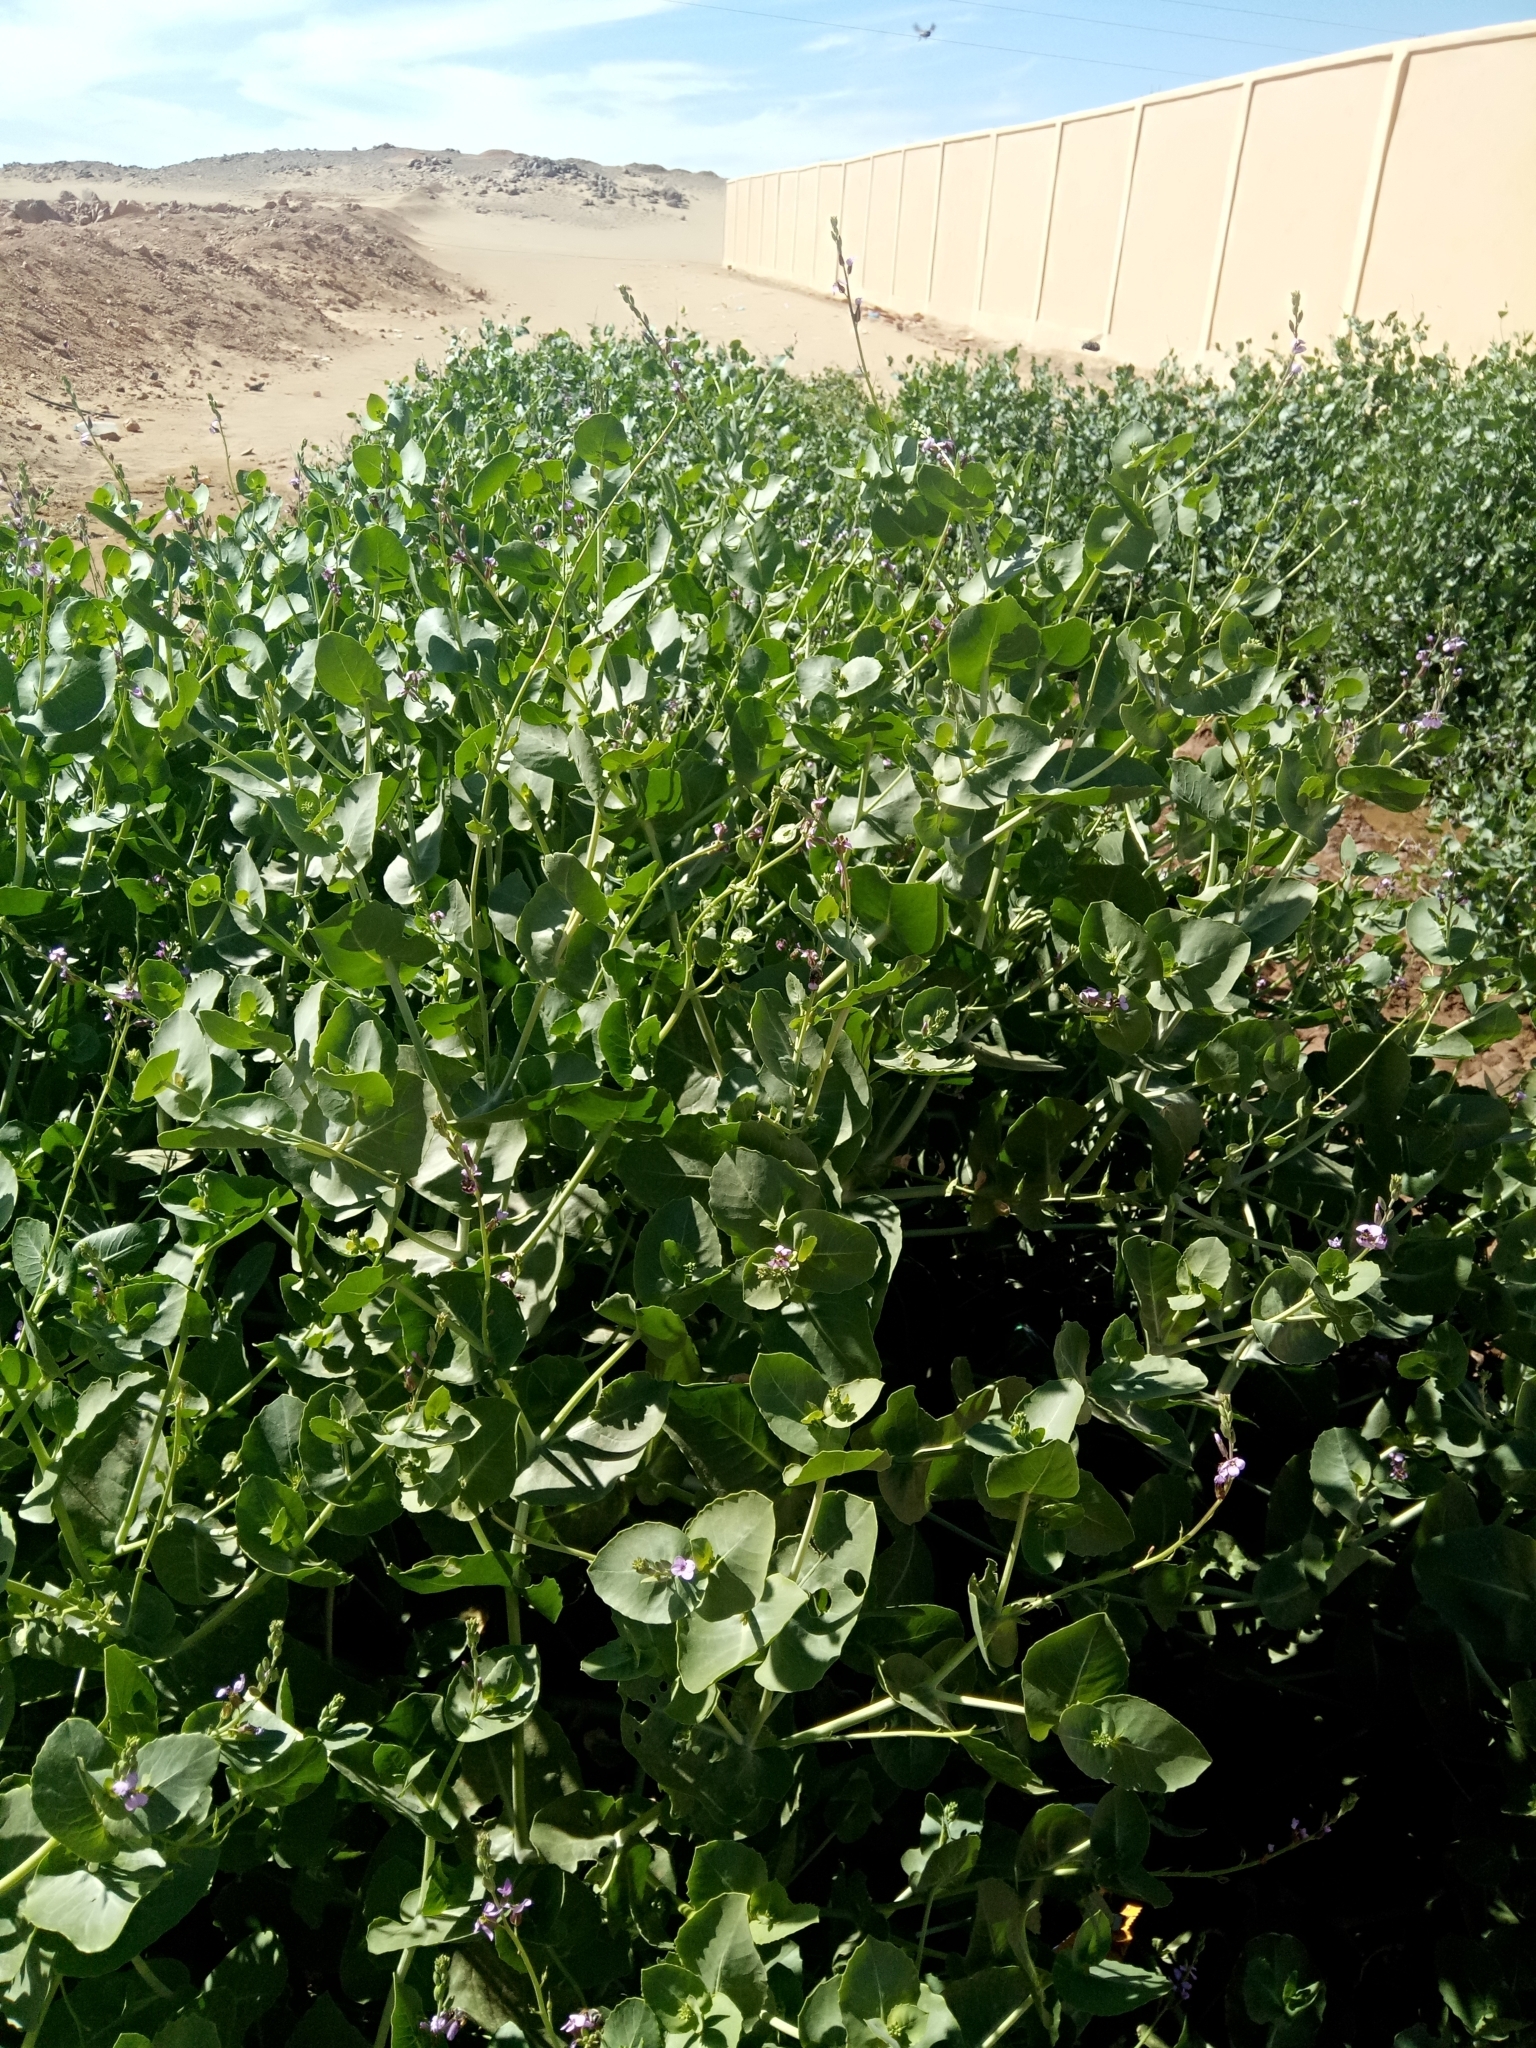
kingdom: Plantae
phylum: Tracheophyta
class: Magnoliopsida
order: Brassicales
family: Brassicaceae
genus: Schouwia
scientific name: Schouwia purpurea
